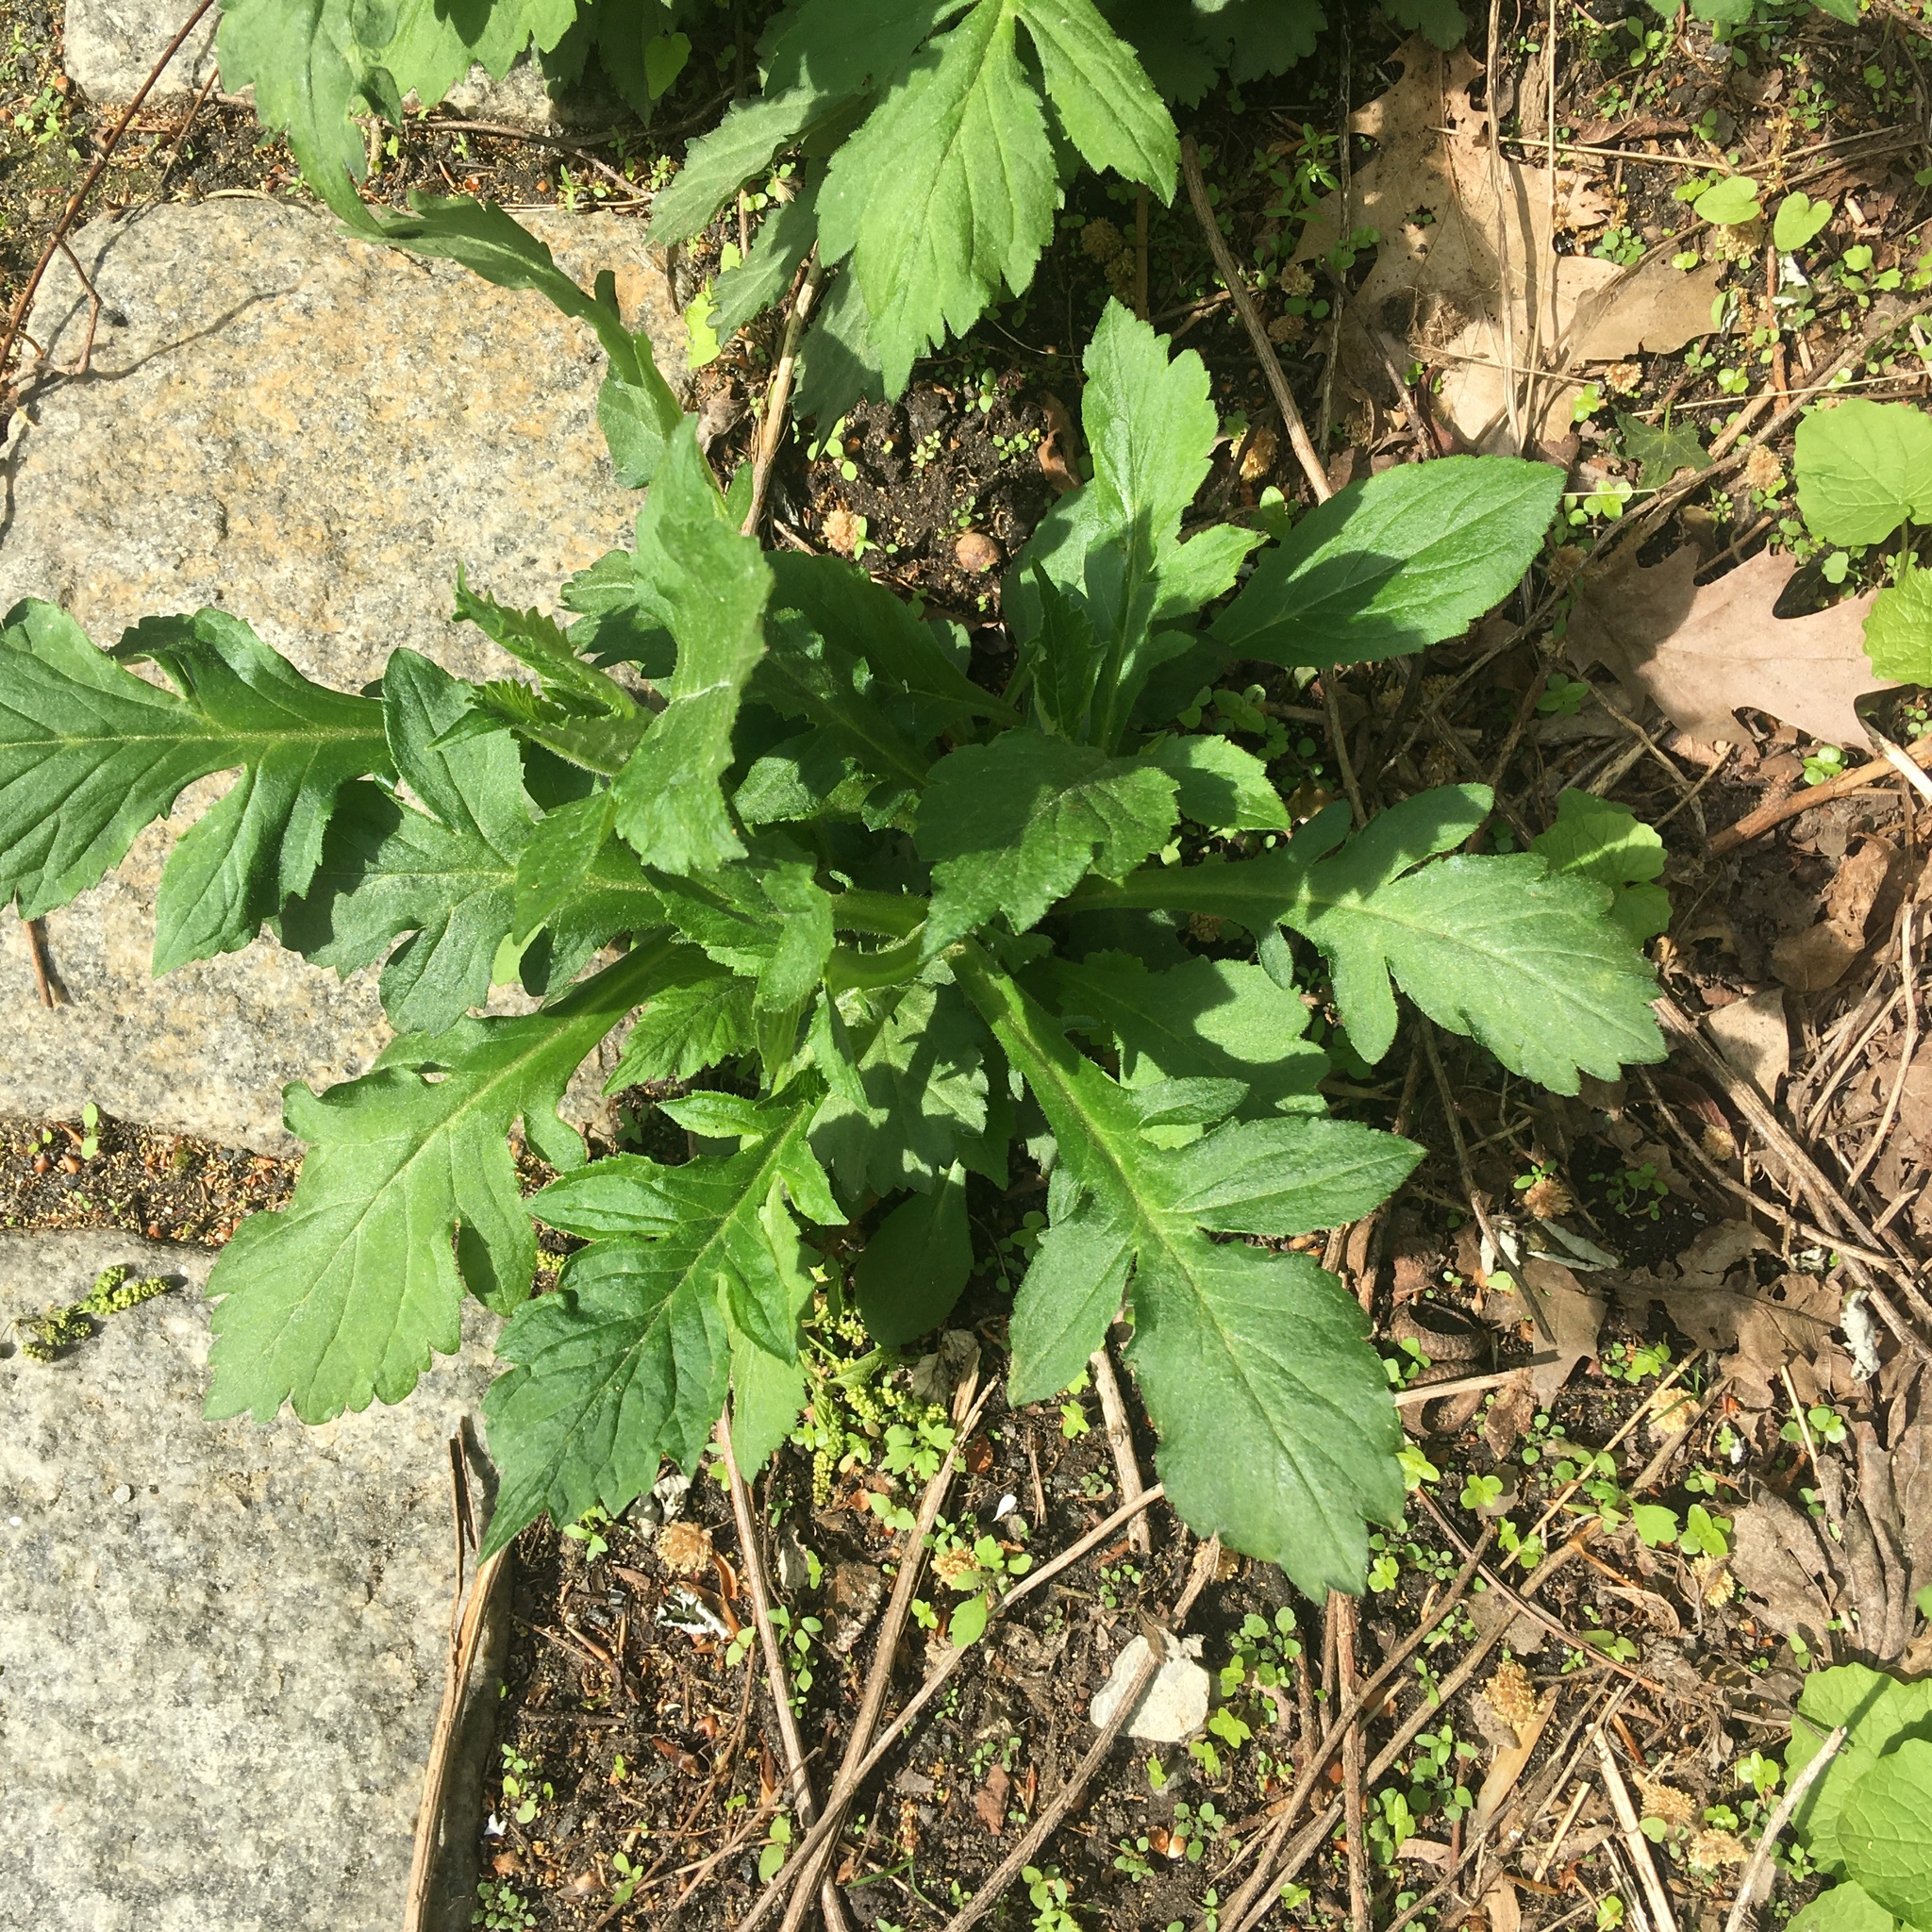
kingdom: Plantae
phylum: Tracheophyta
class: Magnoliopsida
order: Dipsacales
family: Caprifoliaceae
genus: Patrinia
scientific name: Patrinia villosa
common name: Patrinia
